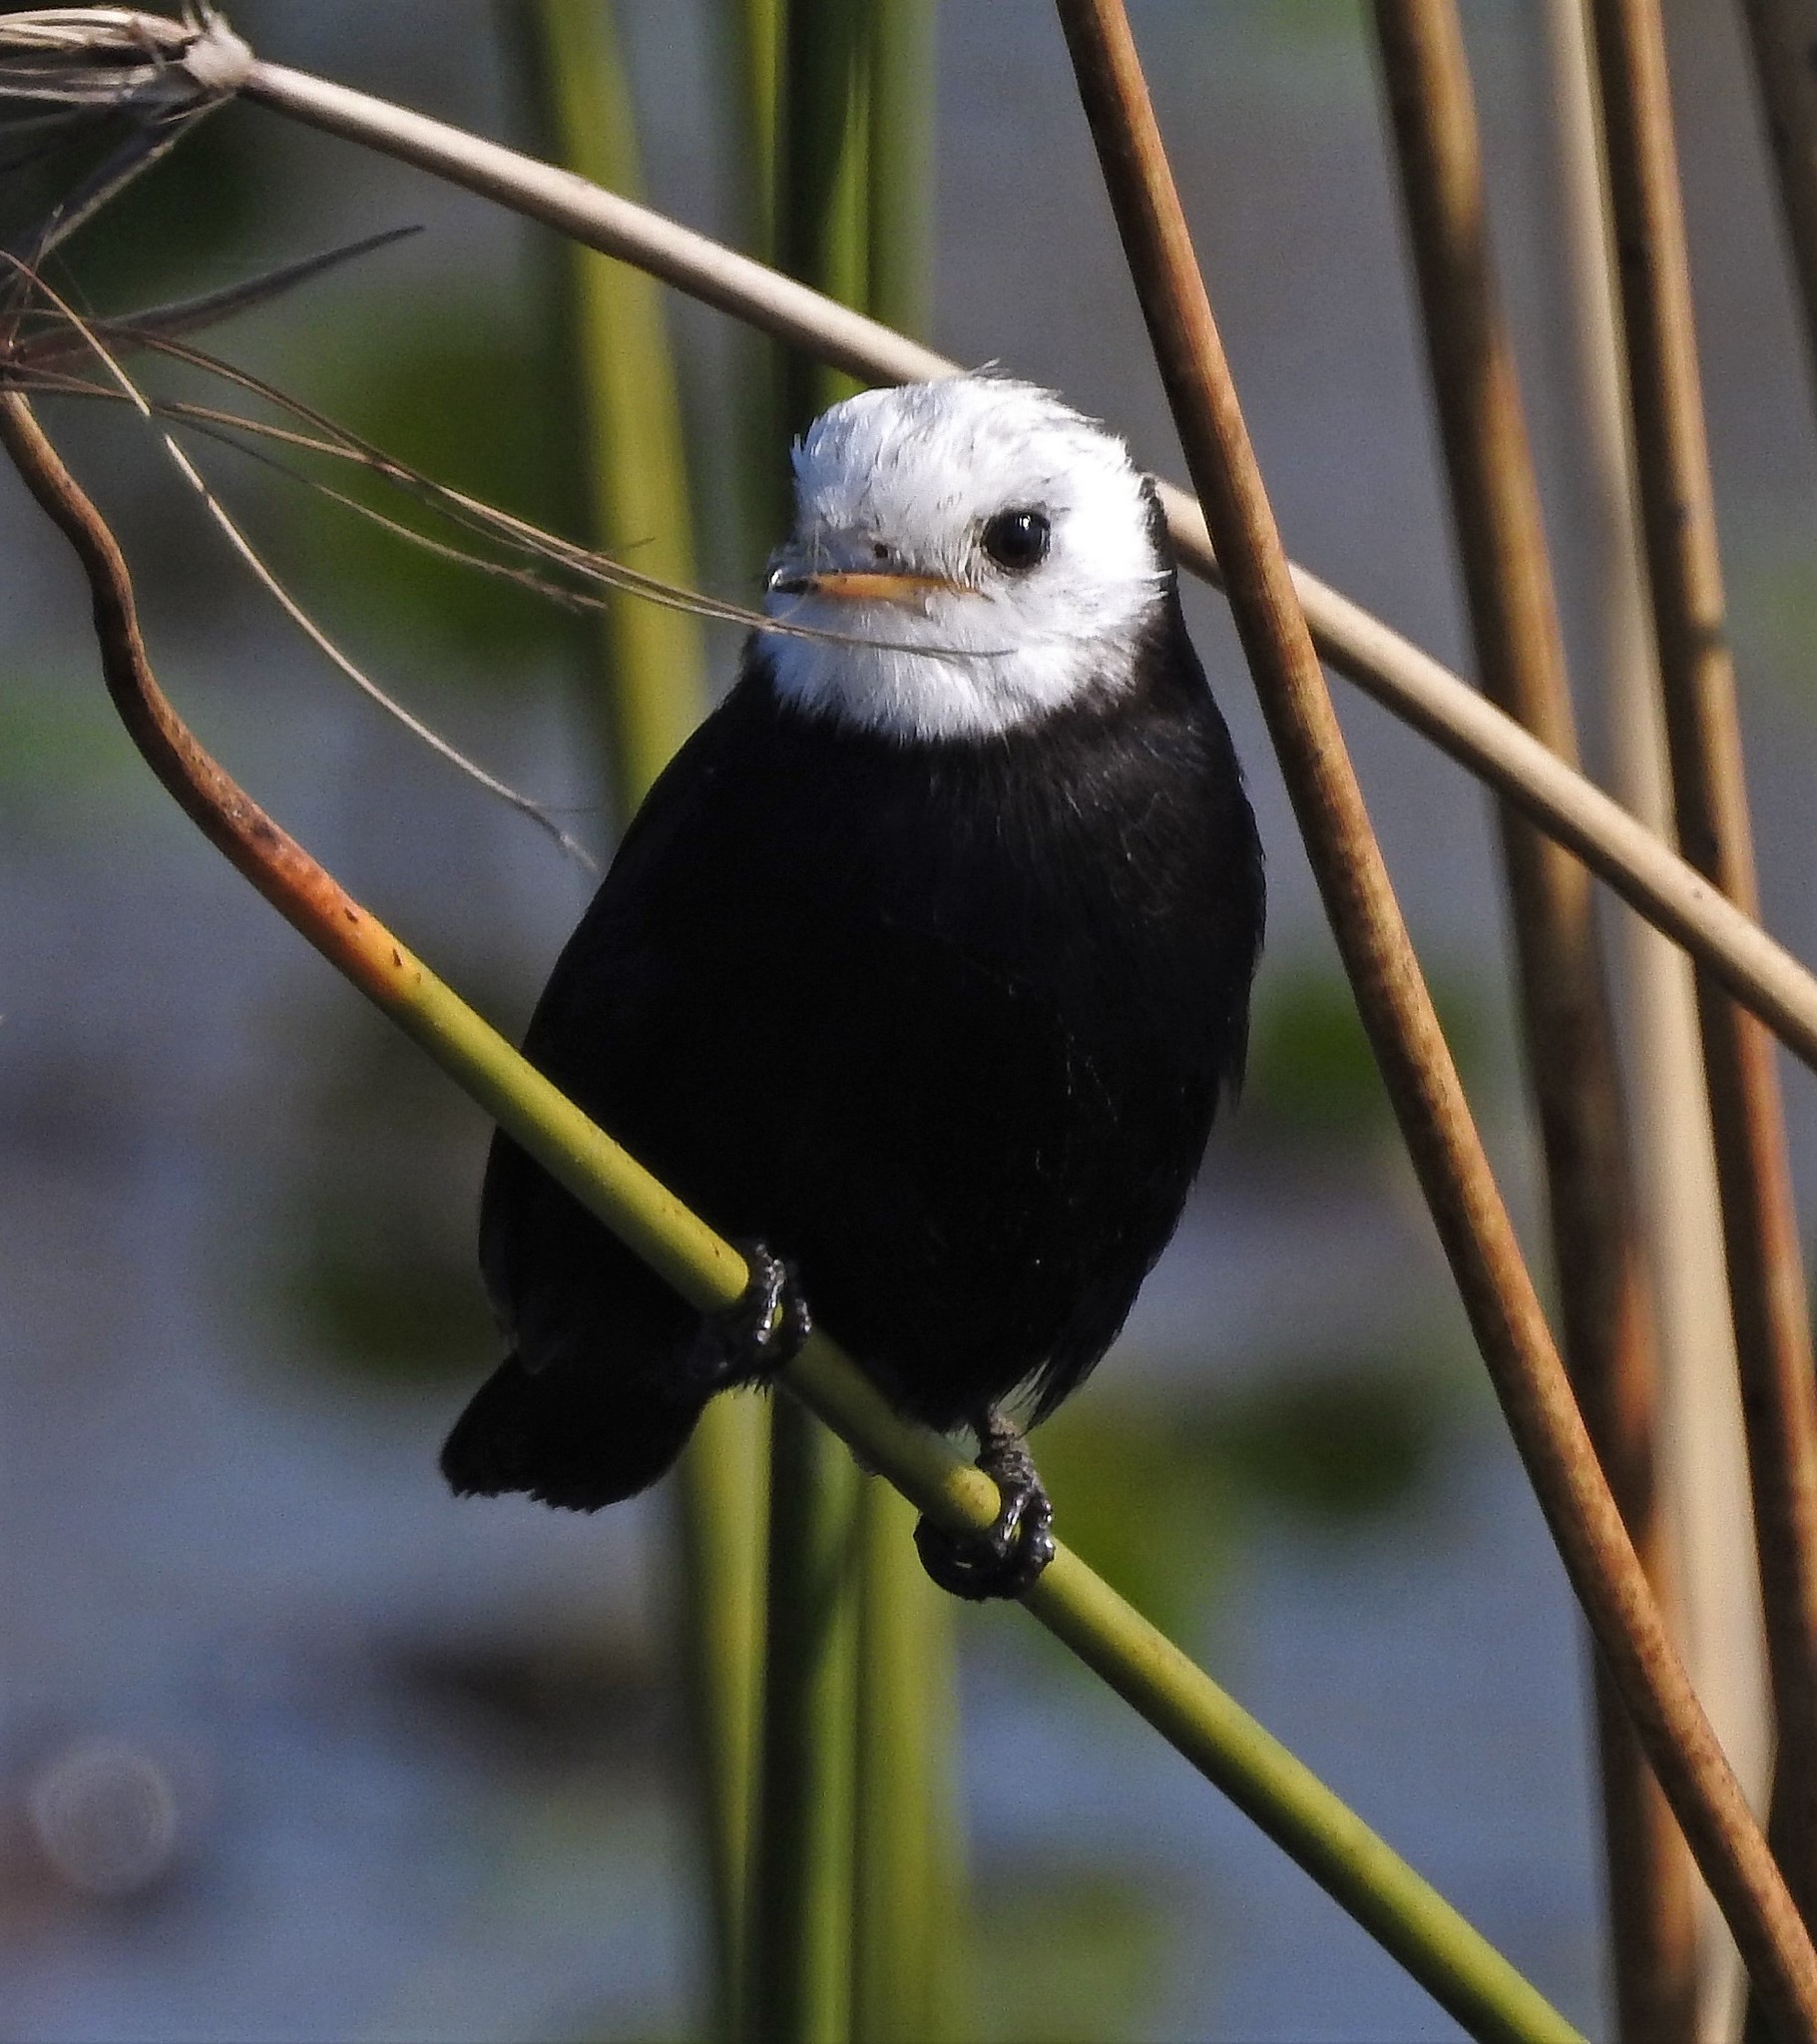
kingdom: Animalia
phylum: Chordata
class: Aves
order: Passeriformes
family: Tyrannidae
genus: Arundinicola
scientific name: Arundinicola leucocephala
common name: White-headed marsh tyrant
